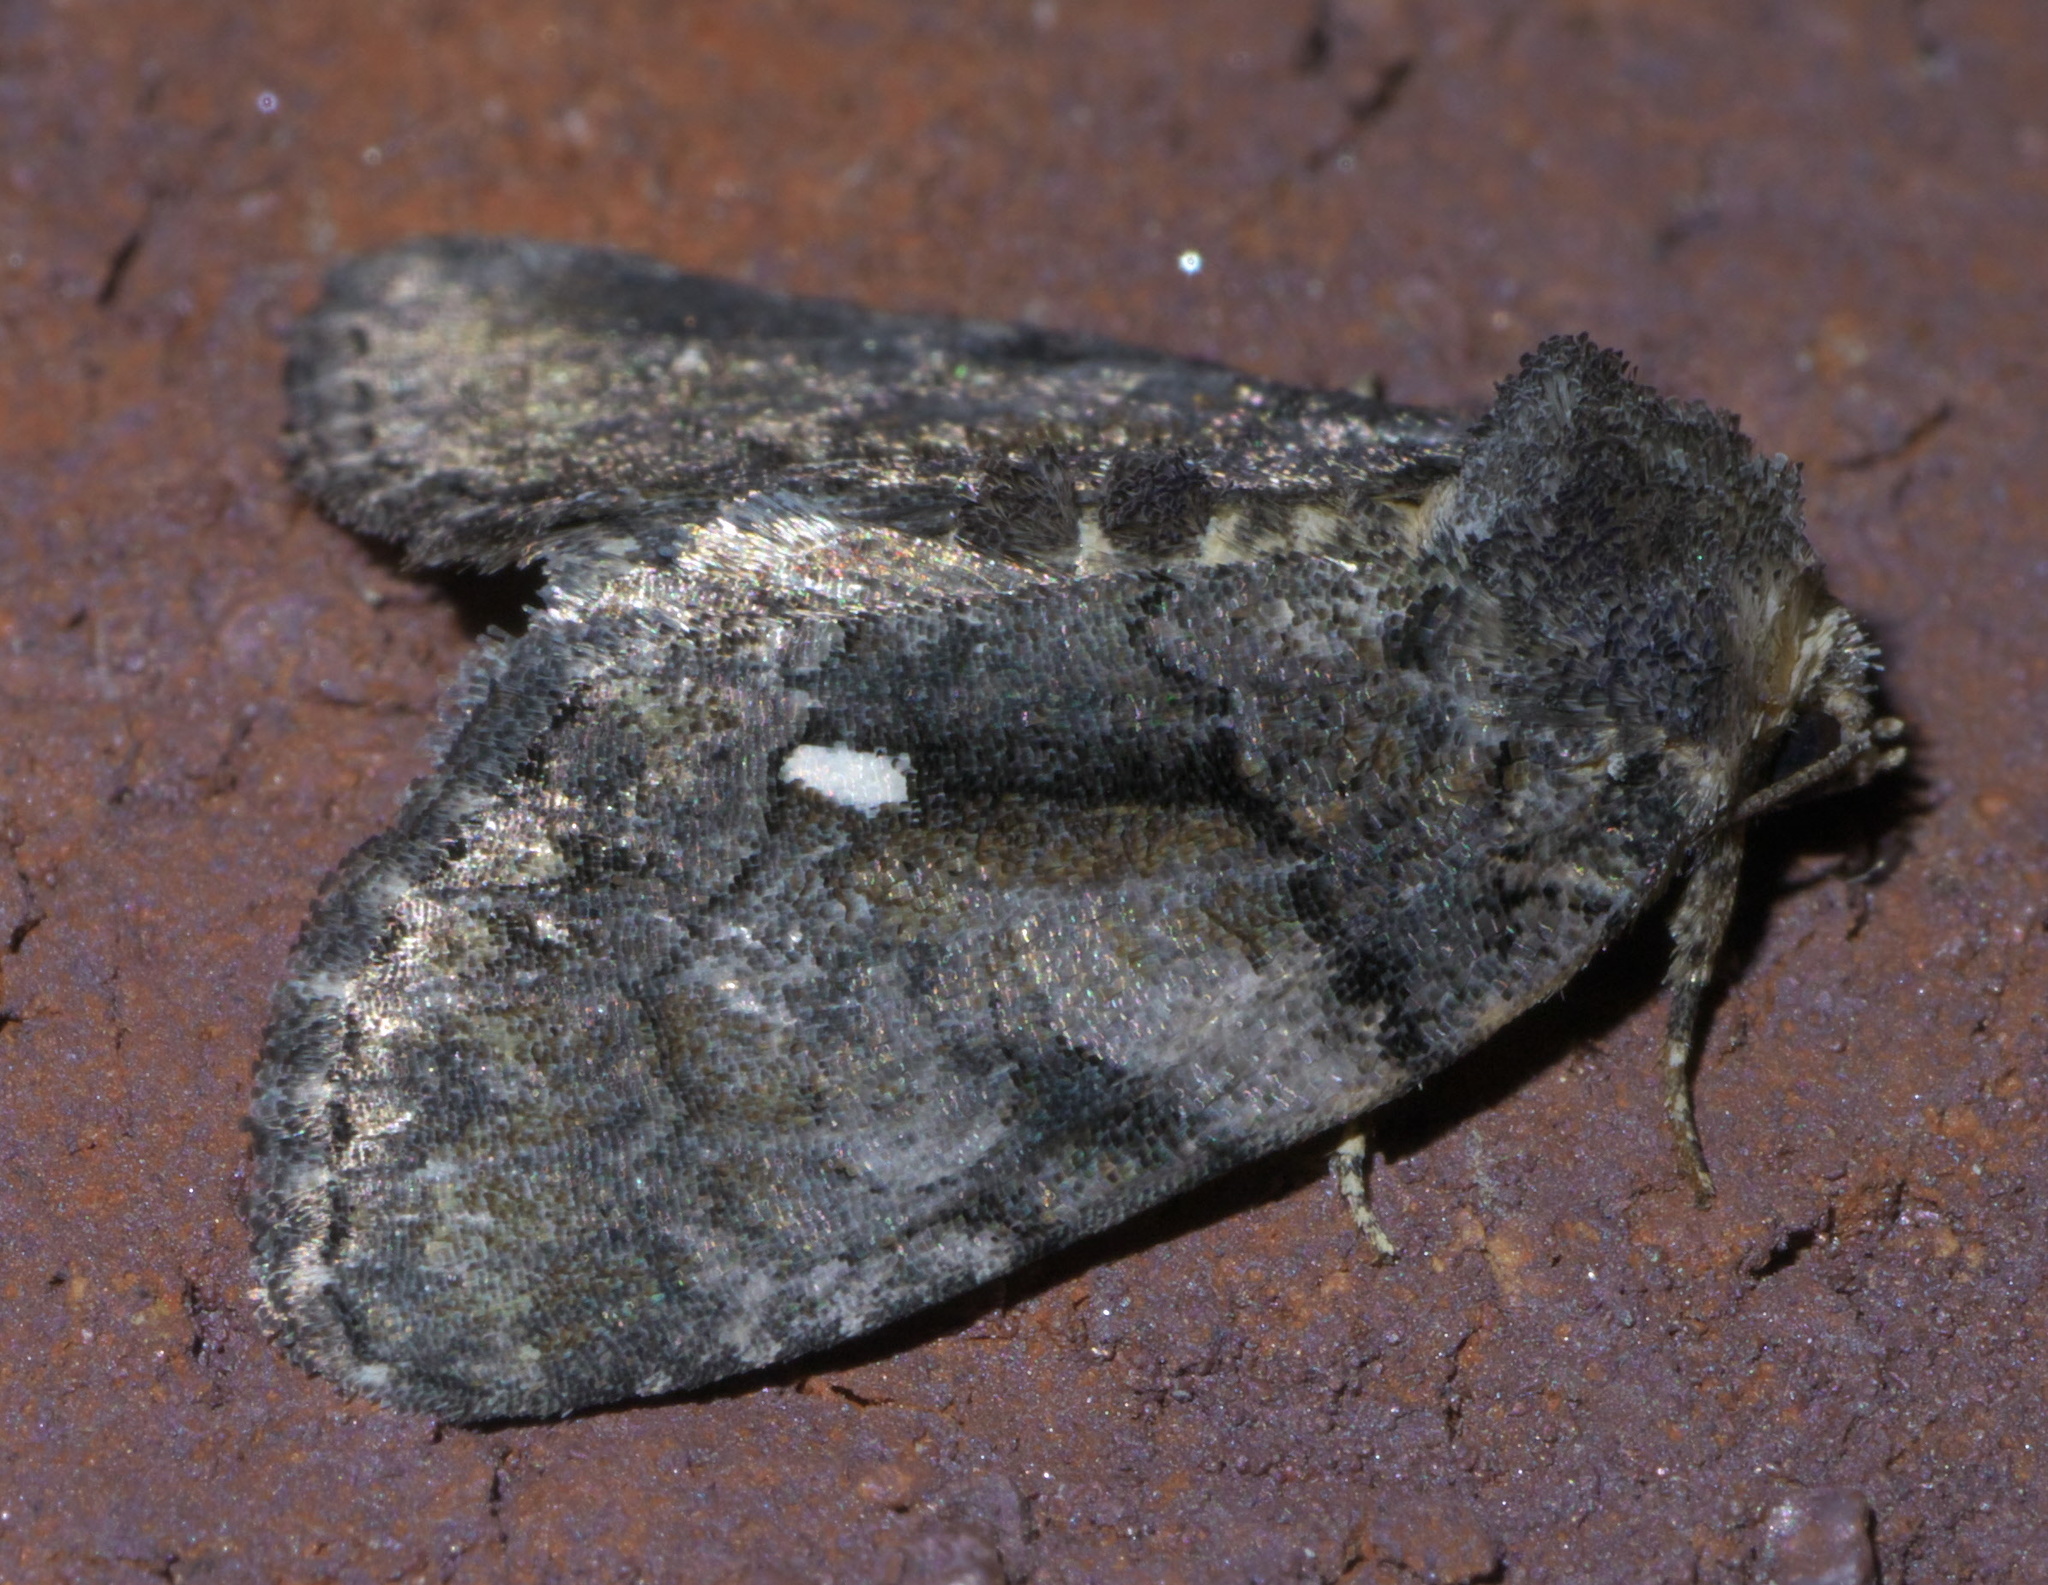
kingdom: Animalia
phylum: Arthropoda
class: Insecta
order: Lepidoptera
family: Noctuidae
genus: Chytonix
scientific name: Chytonix palliatricula
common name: Cloaked marvel
